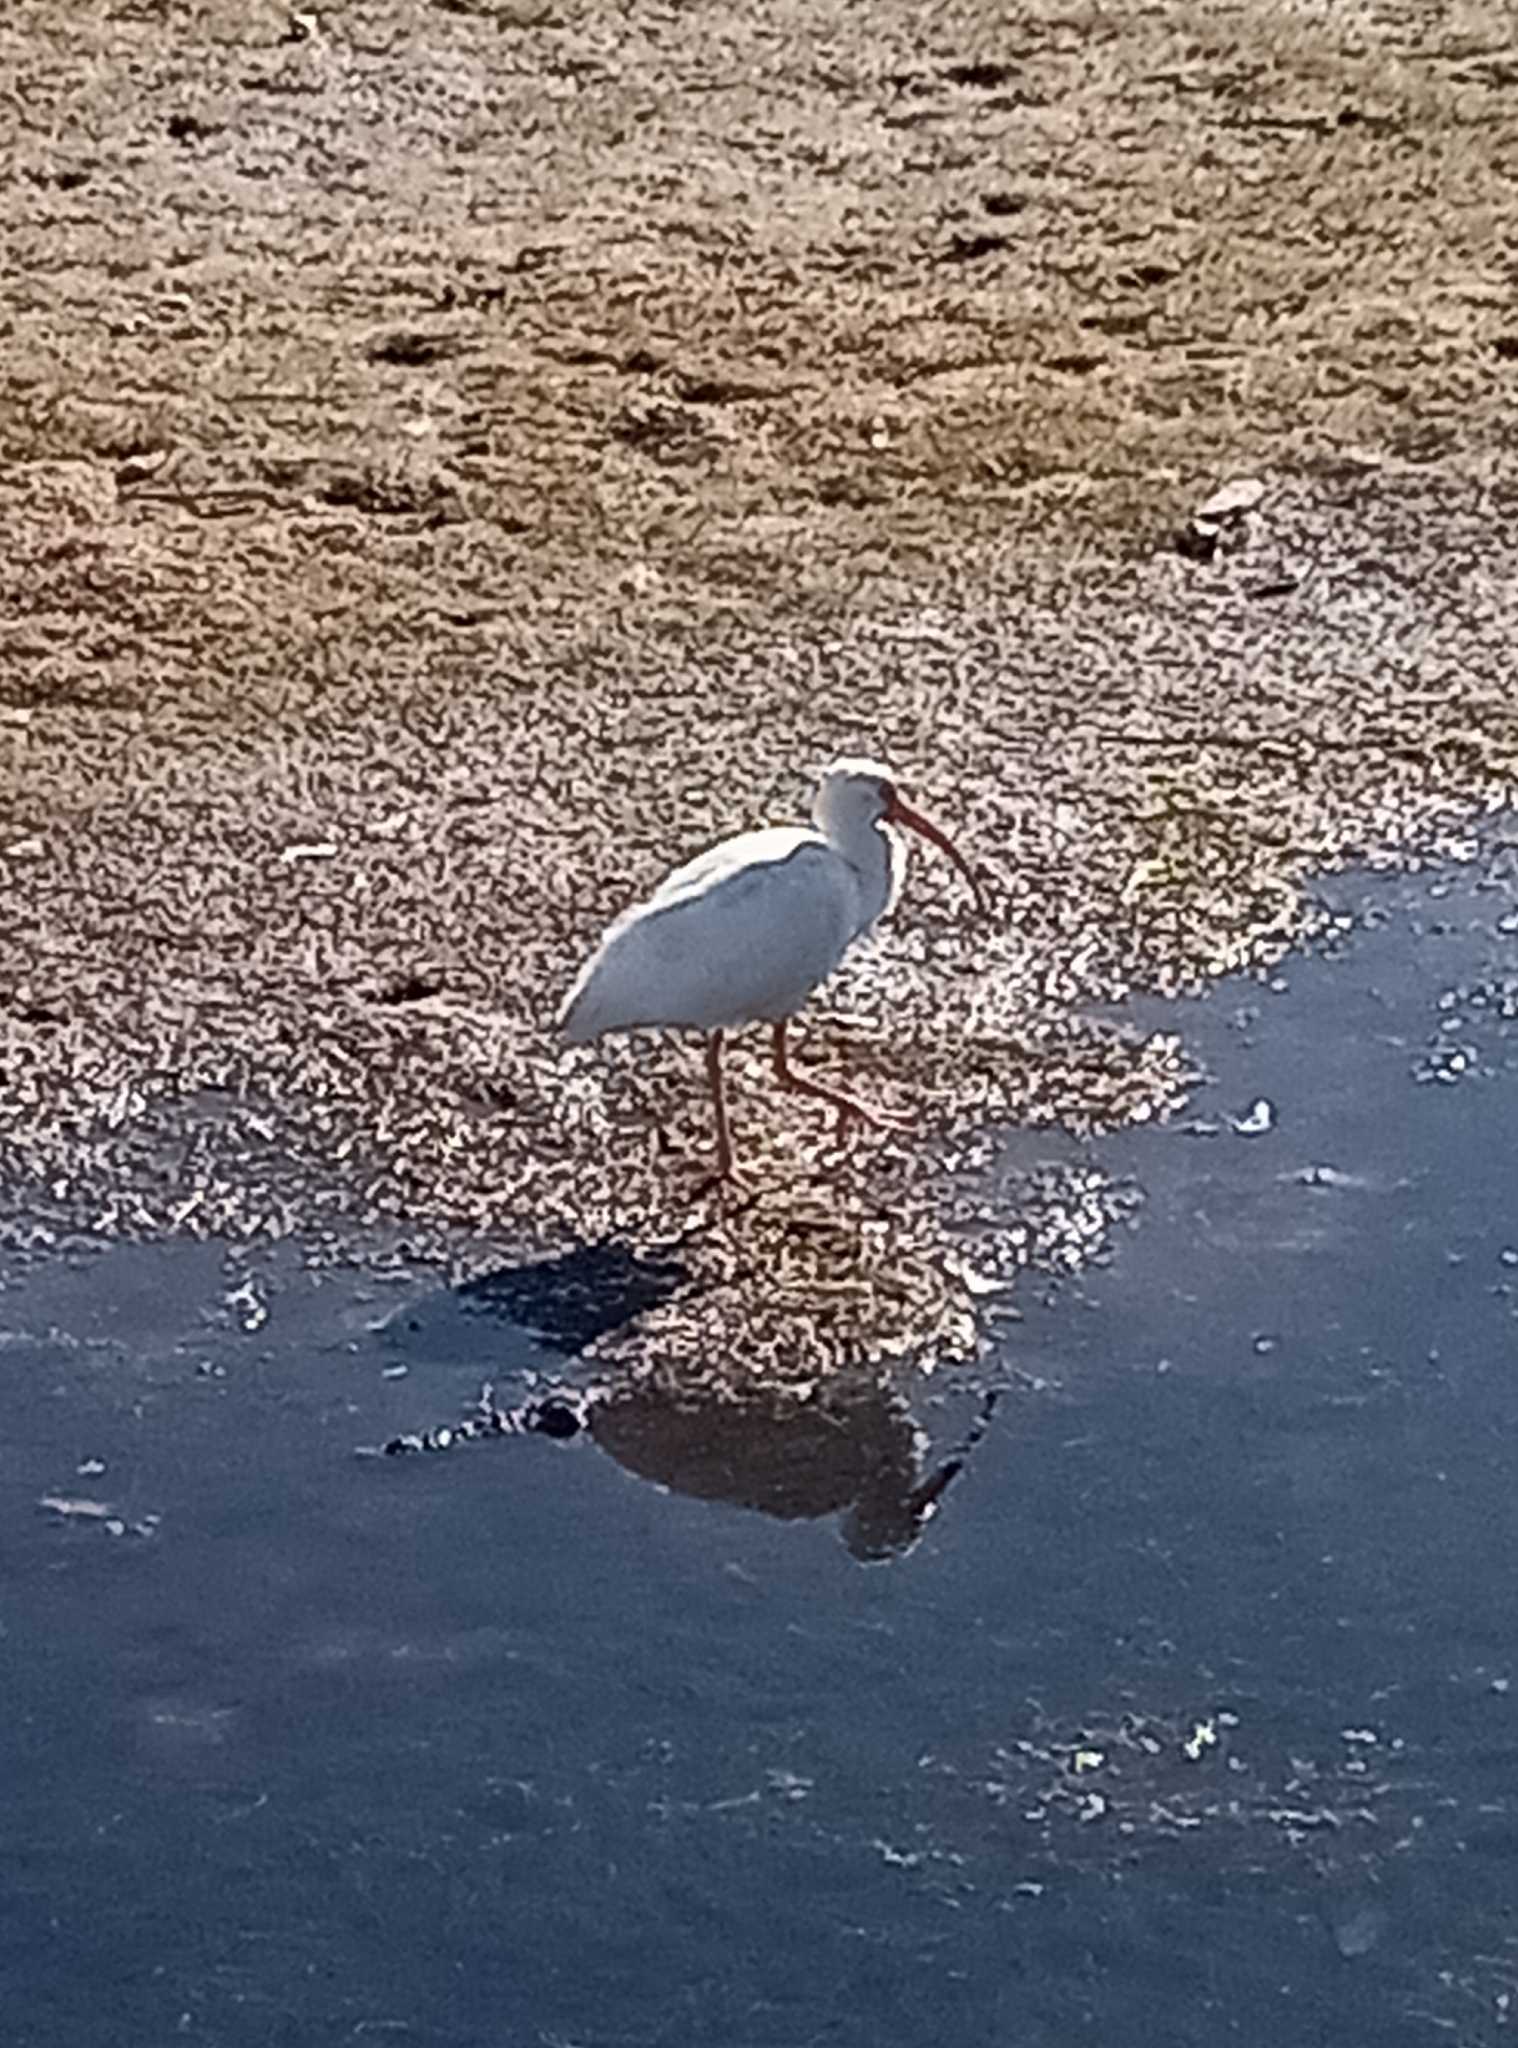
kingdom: Animalia
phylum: Chordata
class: Aves
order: Pelecaniformes
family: Threskiornithidae
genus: Eudocimus
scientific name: Eudocimus albus
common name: White ibis
